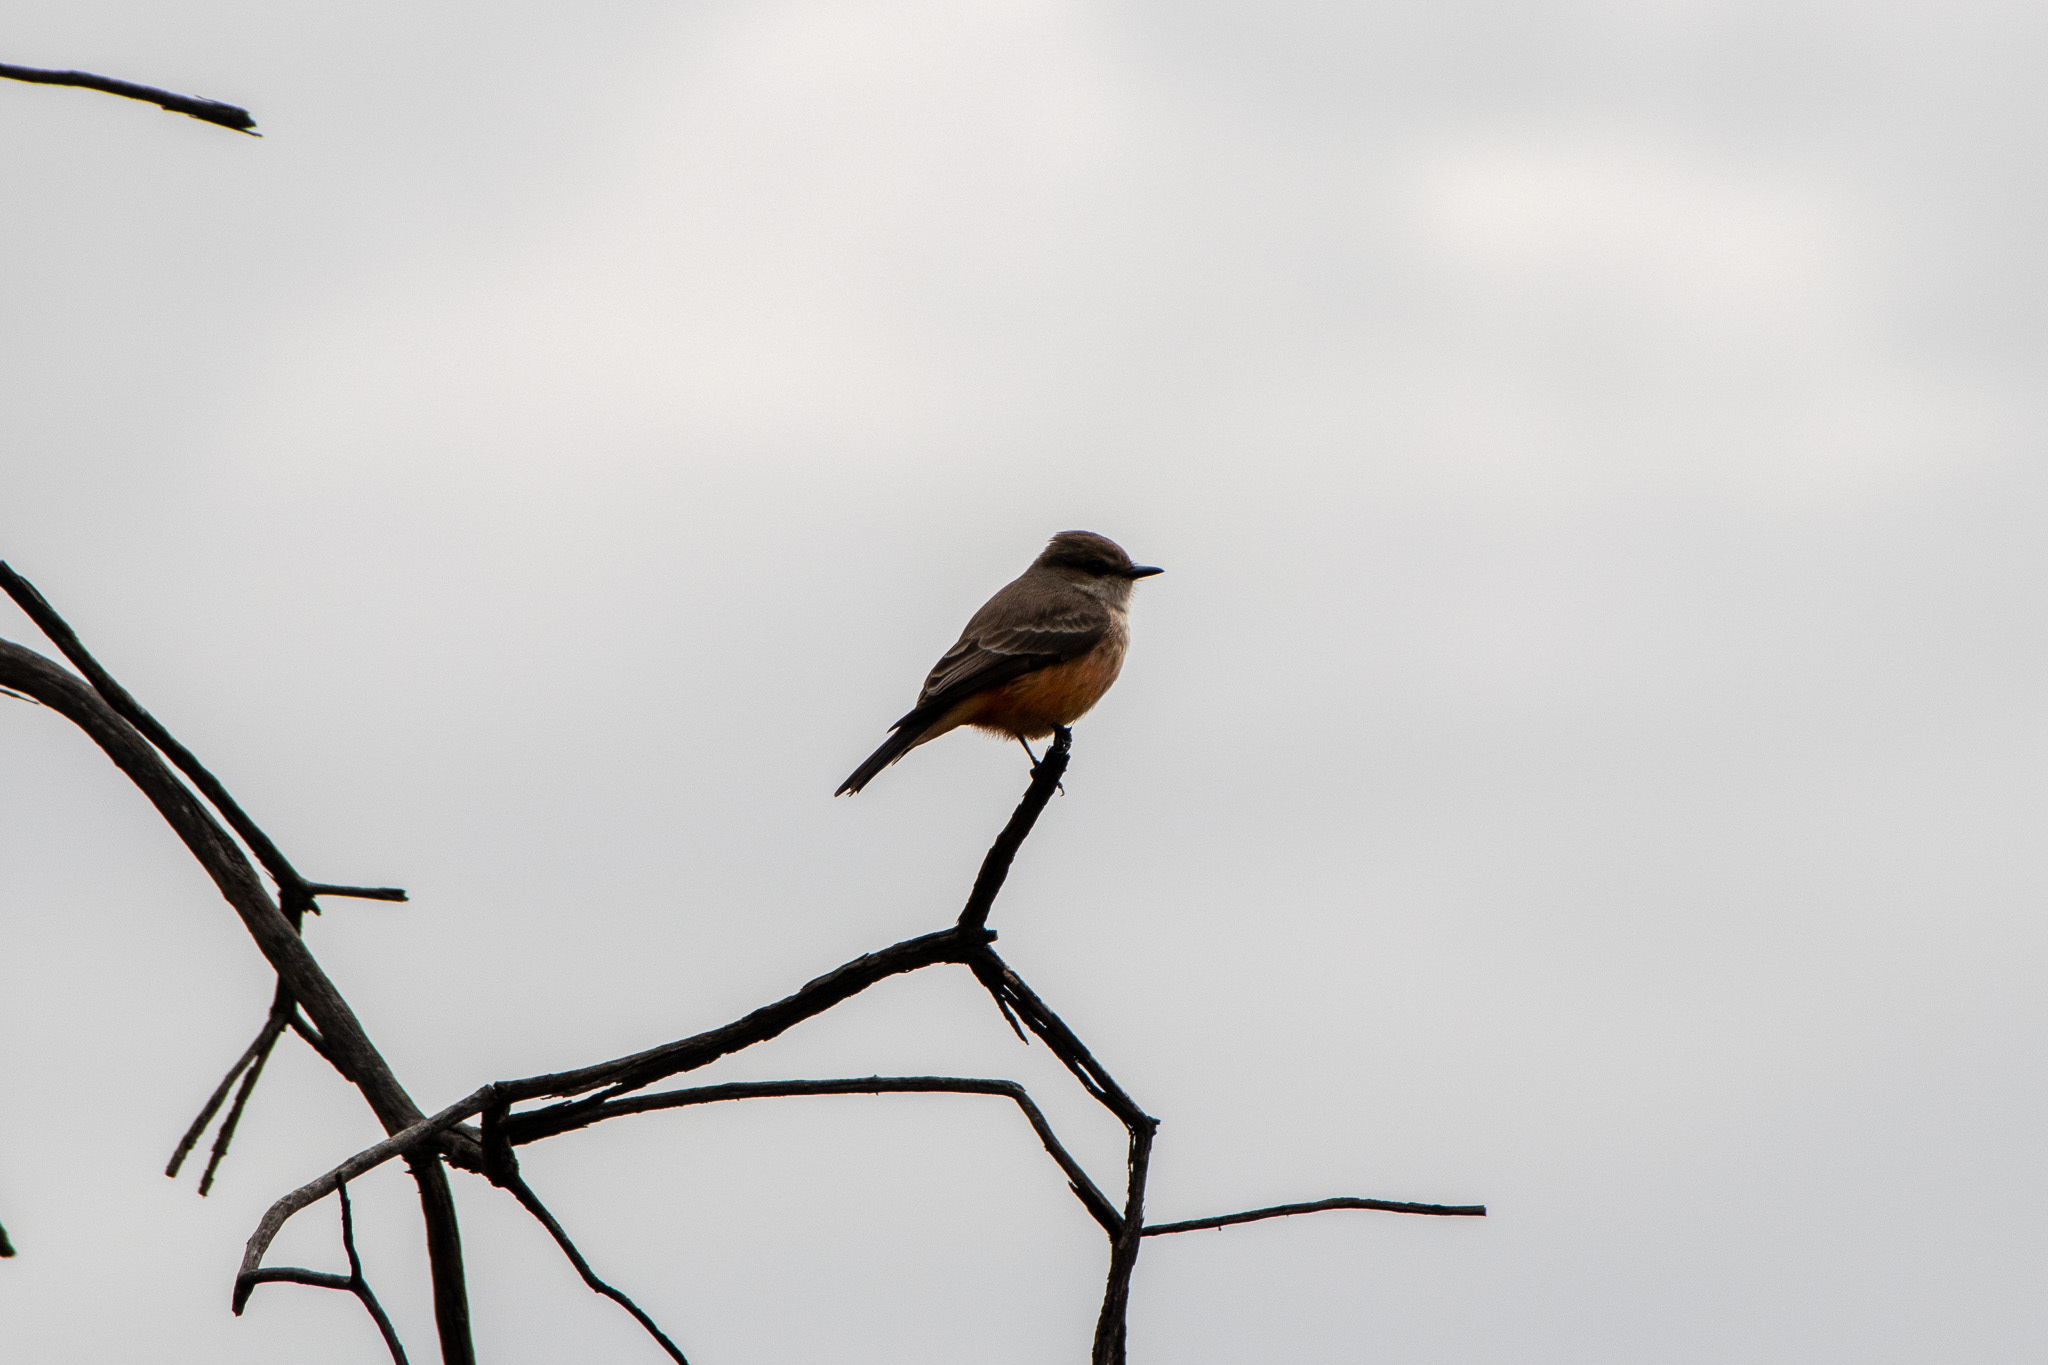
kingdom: Animalia
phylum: Chordata
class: Aves
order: Passeriformes
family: Tyrannidae
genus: Pyrocephalus
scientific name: Pyrocephalus rubinus
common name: Vermilion flycatcher
